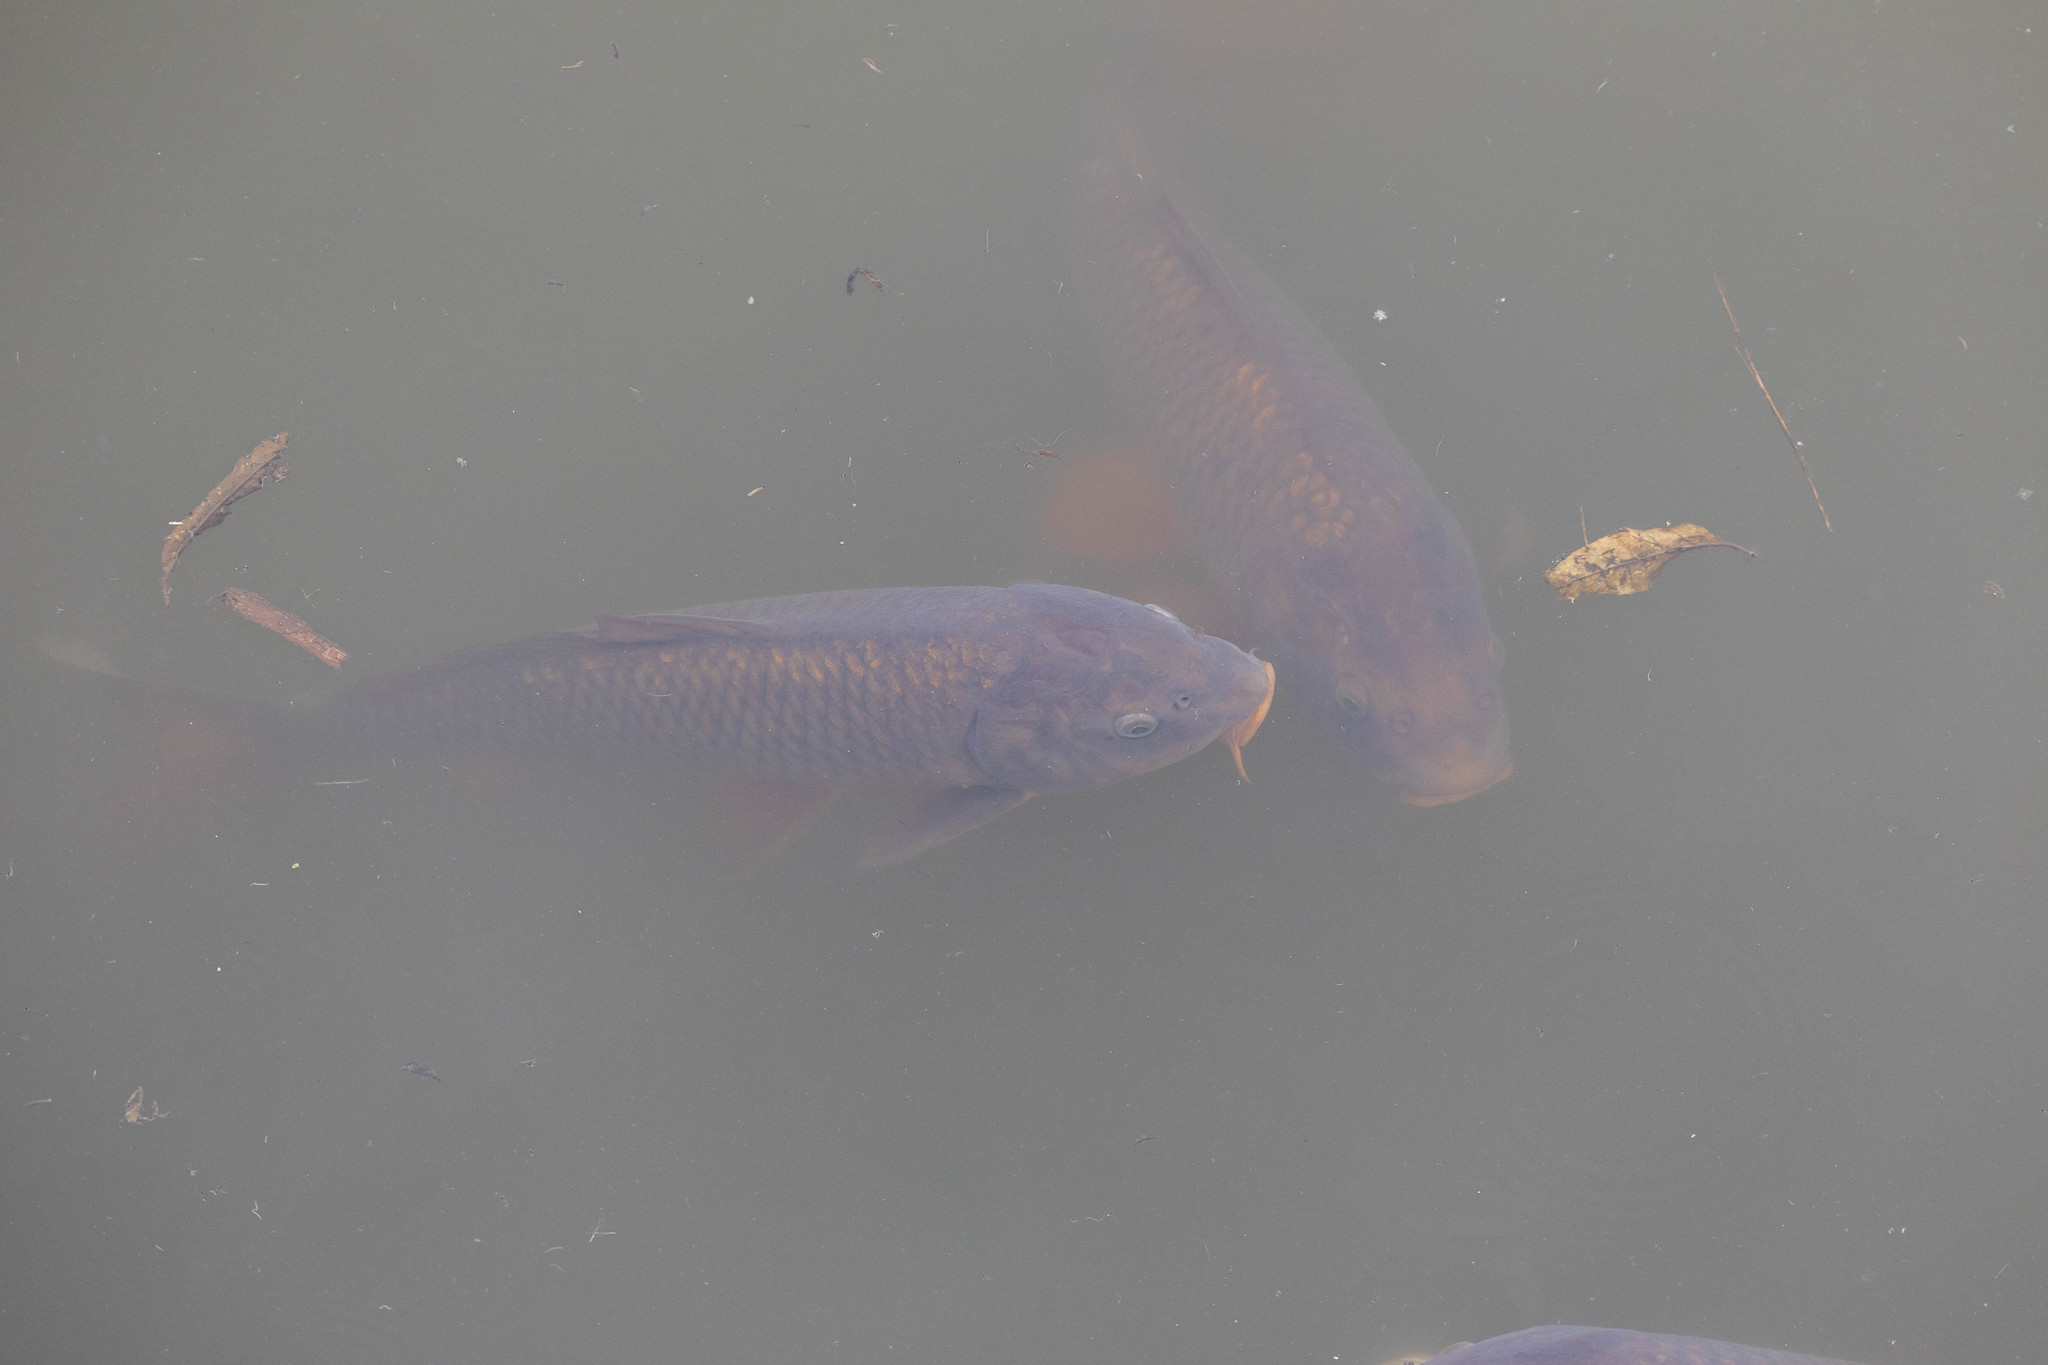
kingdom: Animalia
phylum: Chordata
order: Cypriniformes
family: Cyprinidae
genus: Cyprinus
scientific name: Cyprinus carpio
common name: Common carp
